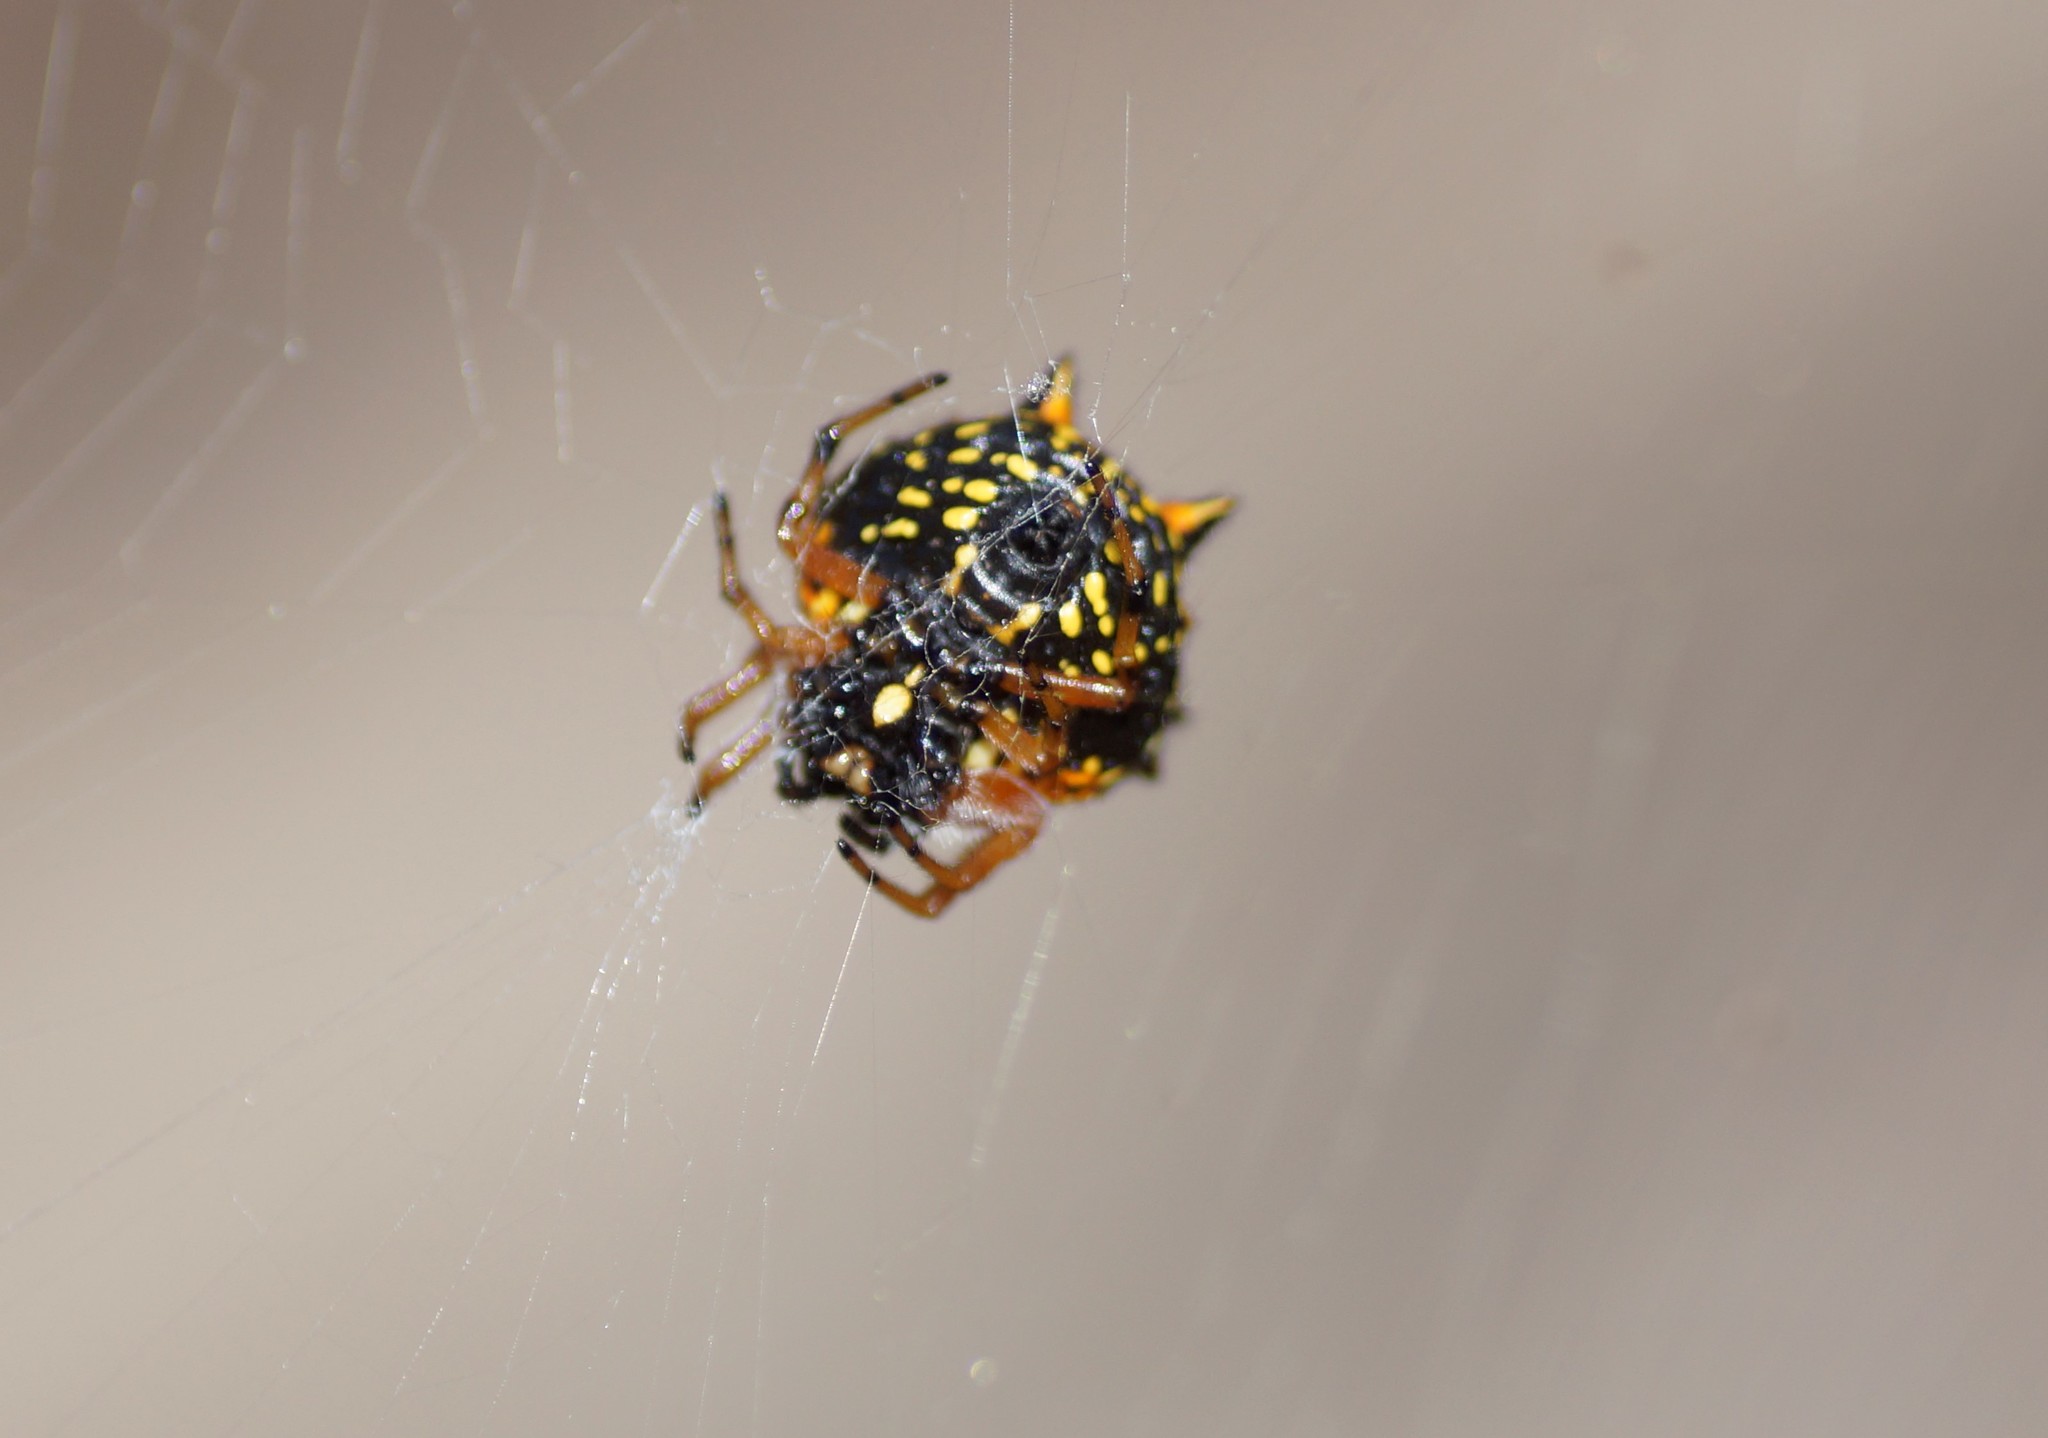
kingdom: Animalia
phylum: Arthropoda
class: Arachnida
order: Araneae
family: Araneidae
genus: Austracantha
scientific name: Austracantha minax
